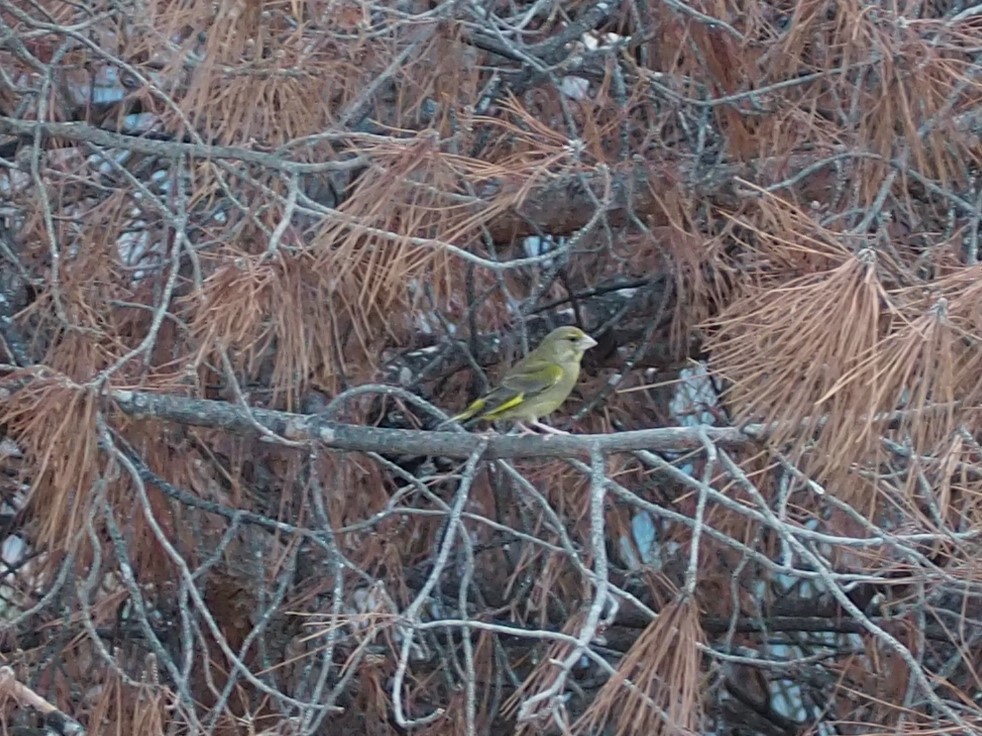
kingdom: Plantae
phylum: Tracheophyta
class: Liliopsida
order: Poales
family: Poaceae
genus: Chloris
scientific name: Chloris chloris
